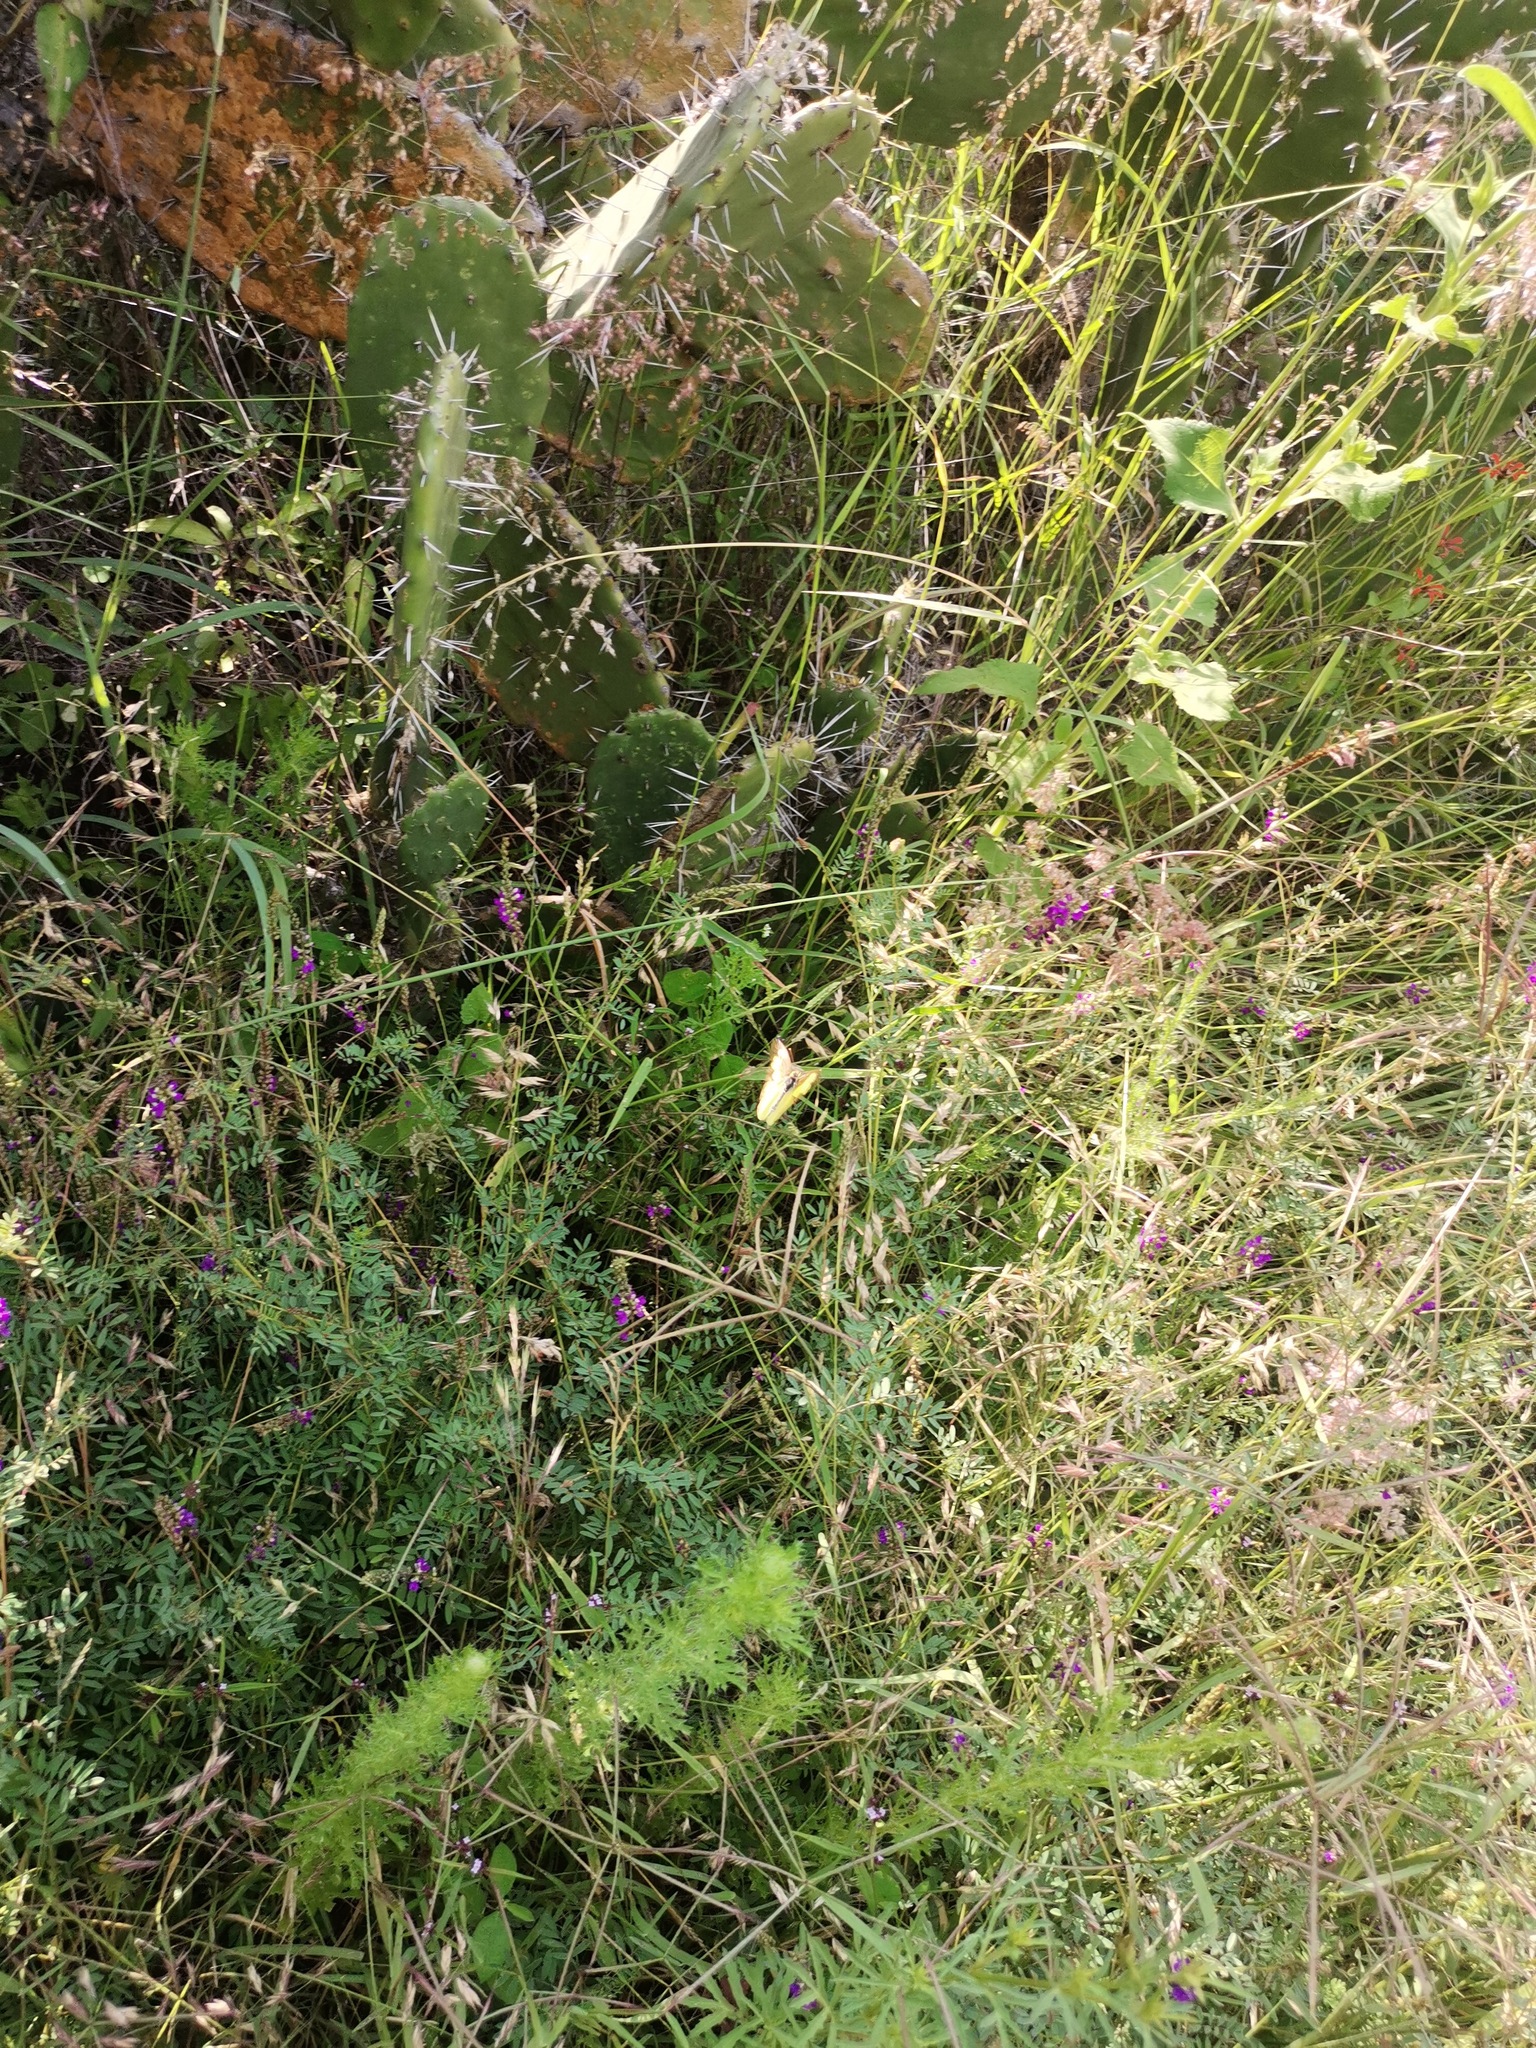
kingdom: Plantae
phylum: Tracheophyta
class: Magnoliopsida
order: Fabales
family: Fabaceae
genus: Dalea
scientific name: Dalea bicolor
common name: Silver prairie-clover
